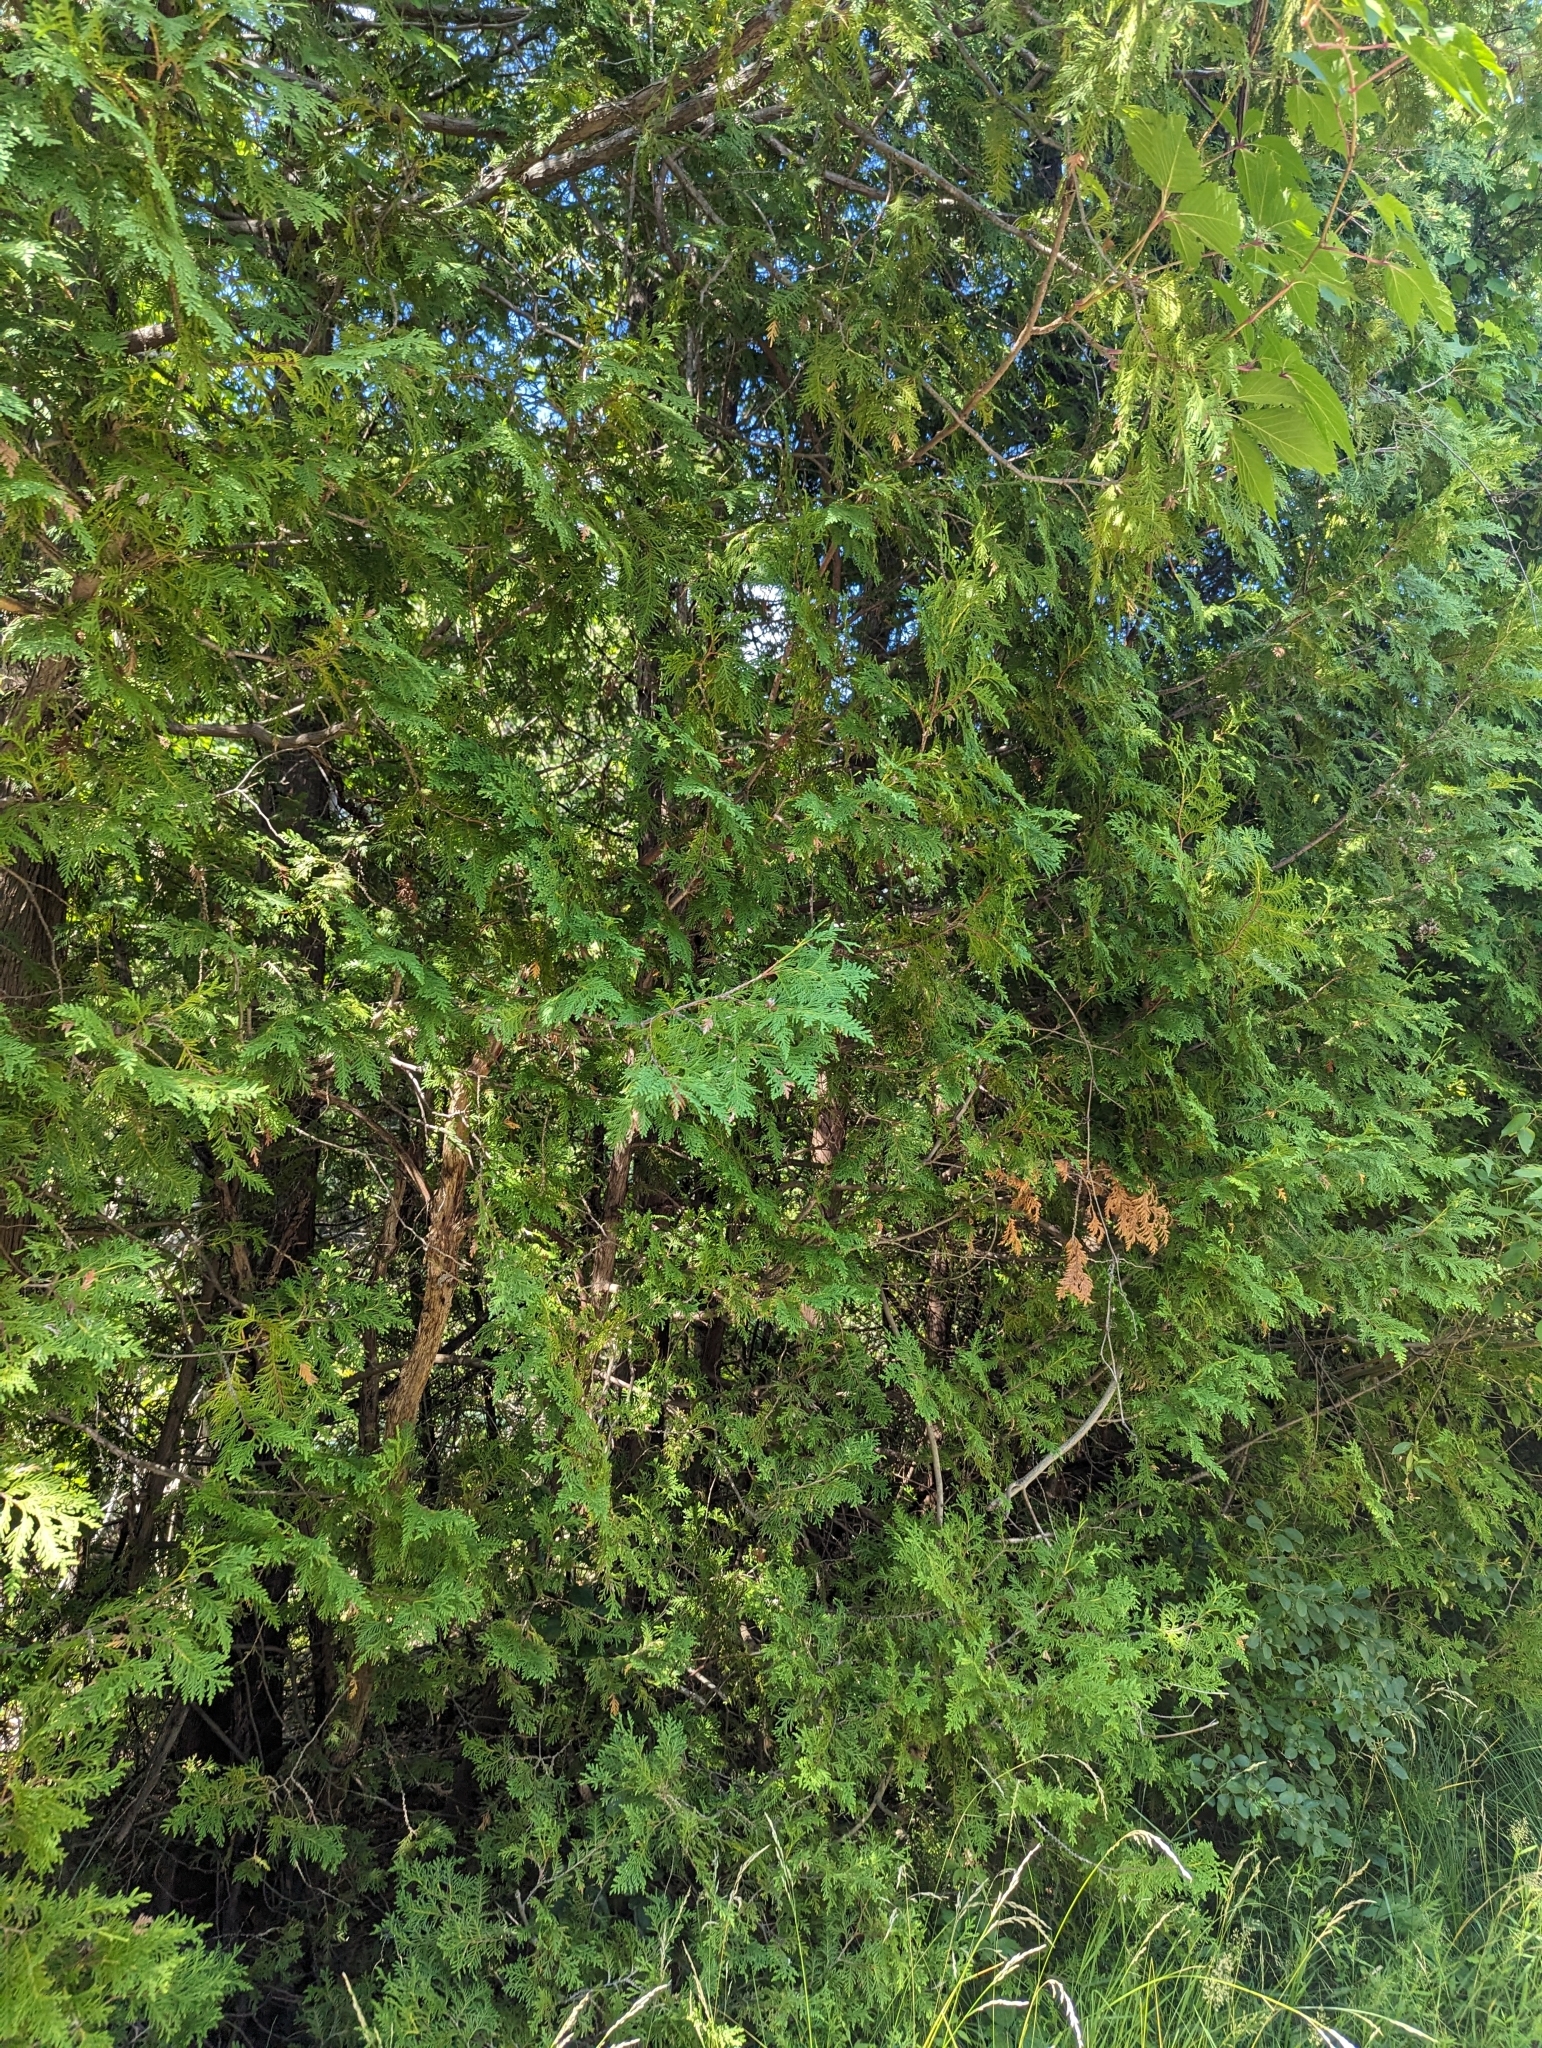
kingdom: Plantae
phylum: Tracheophyta
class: Pinopsida
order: Pinales
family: Cupressaceae
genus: Thuja
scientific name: Thuja occidentalis
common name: Northern white-cedar
